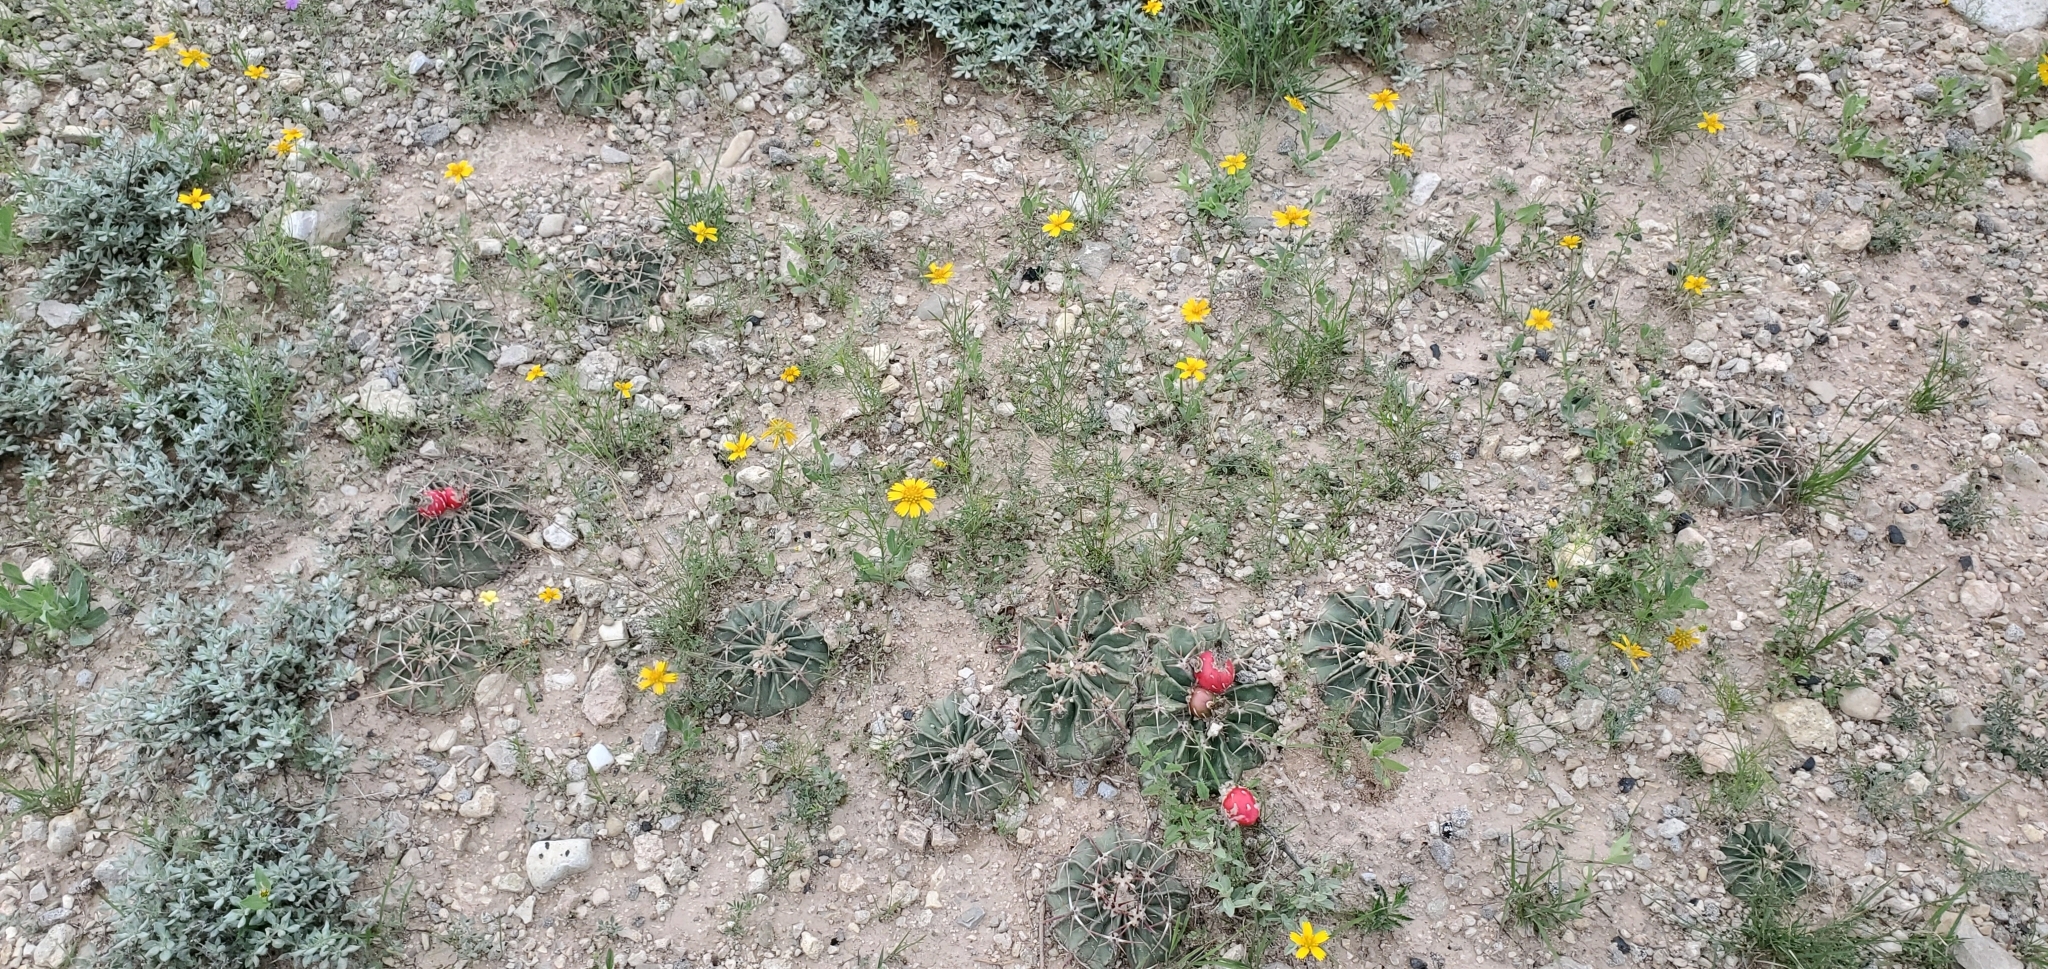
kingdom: Plantae
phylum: Tracheophyta
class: Magnoliopsida
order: Caryophyllales
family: Cactaceae
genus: Echinocactus
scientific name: Echinocactus texensis
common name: Devil's pincushion
